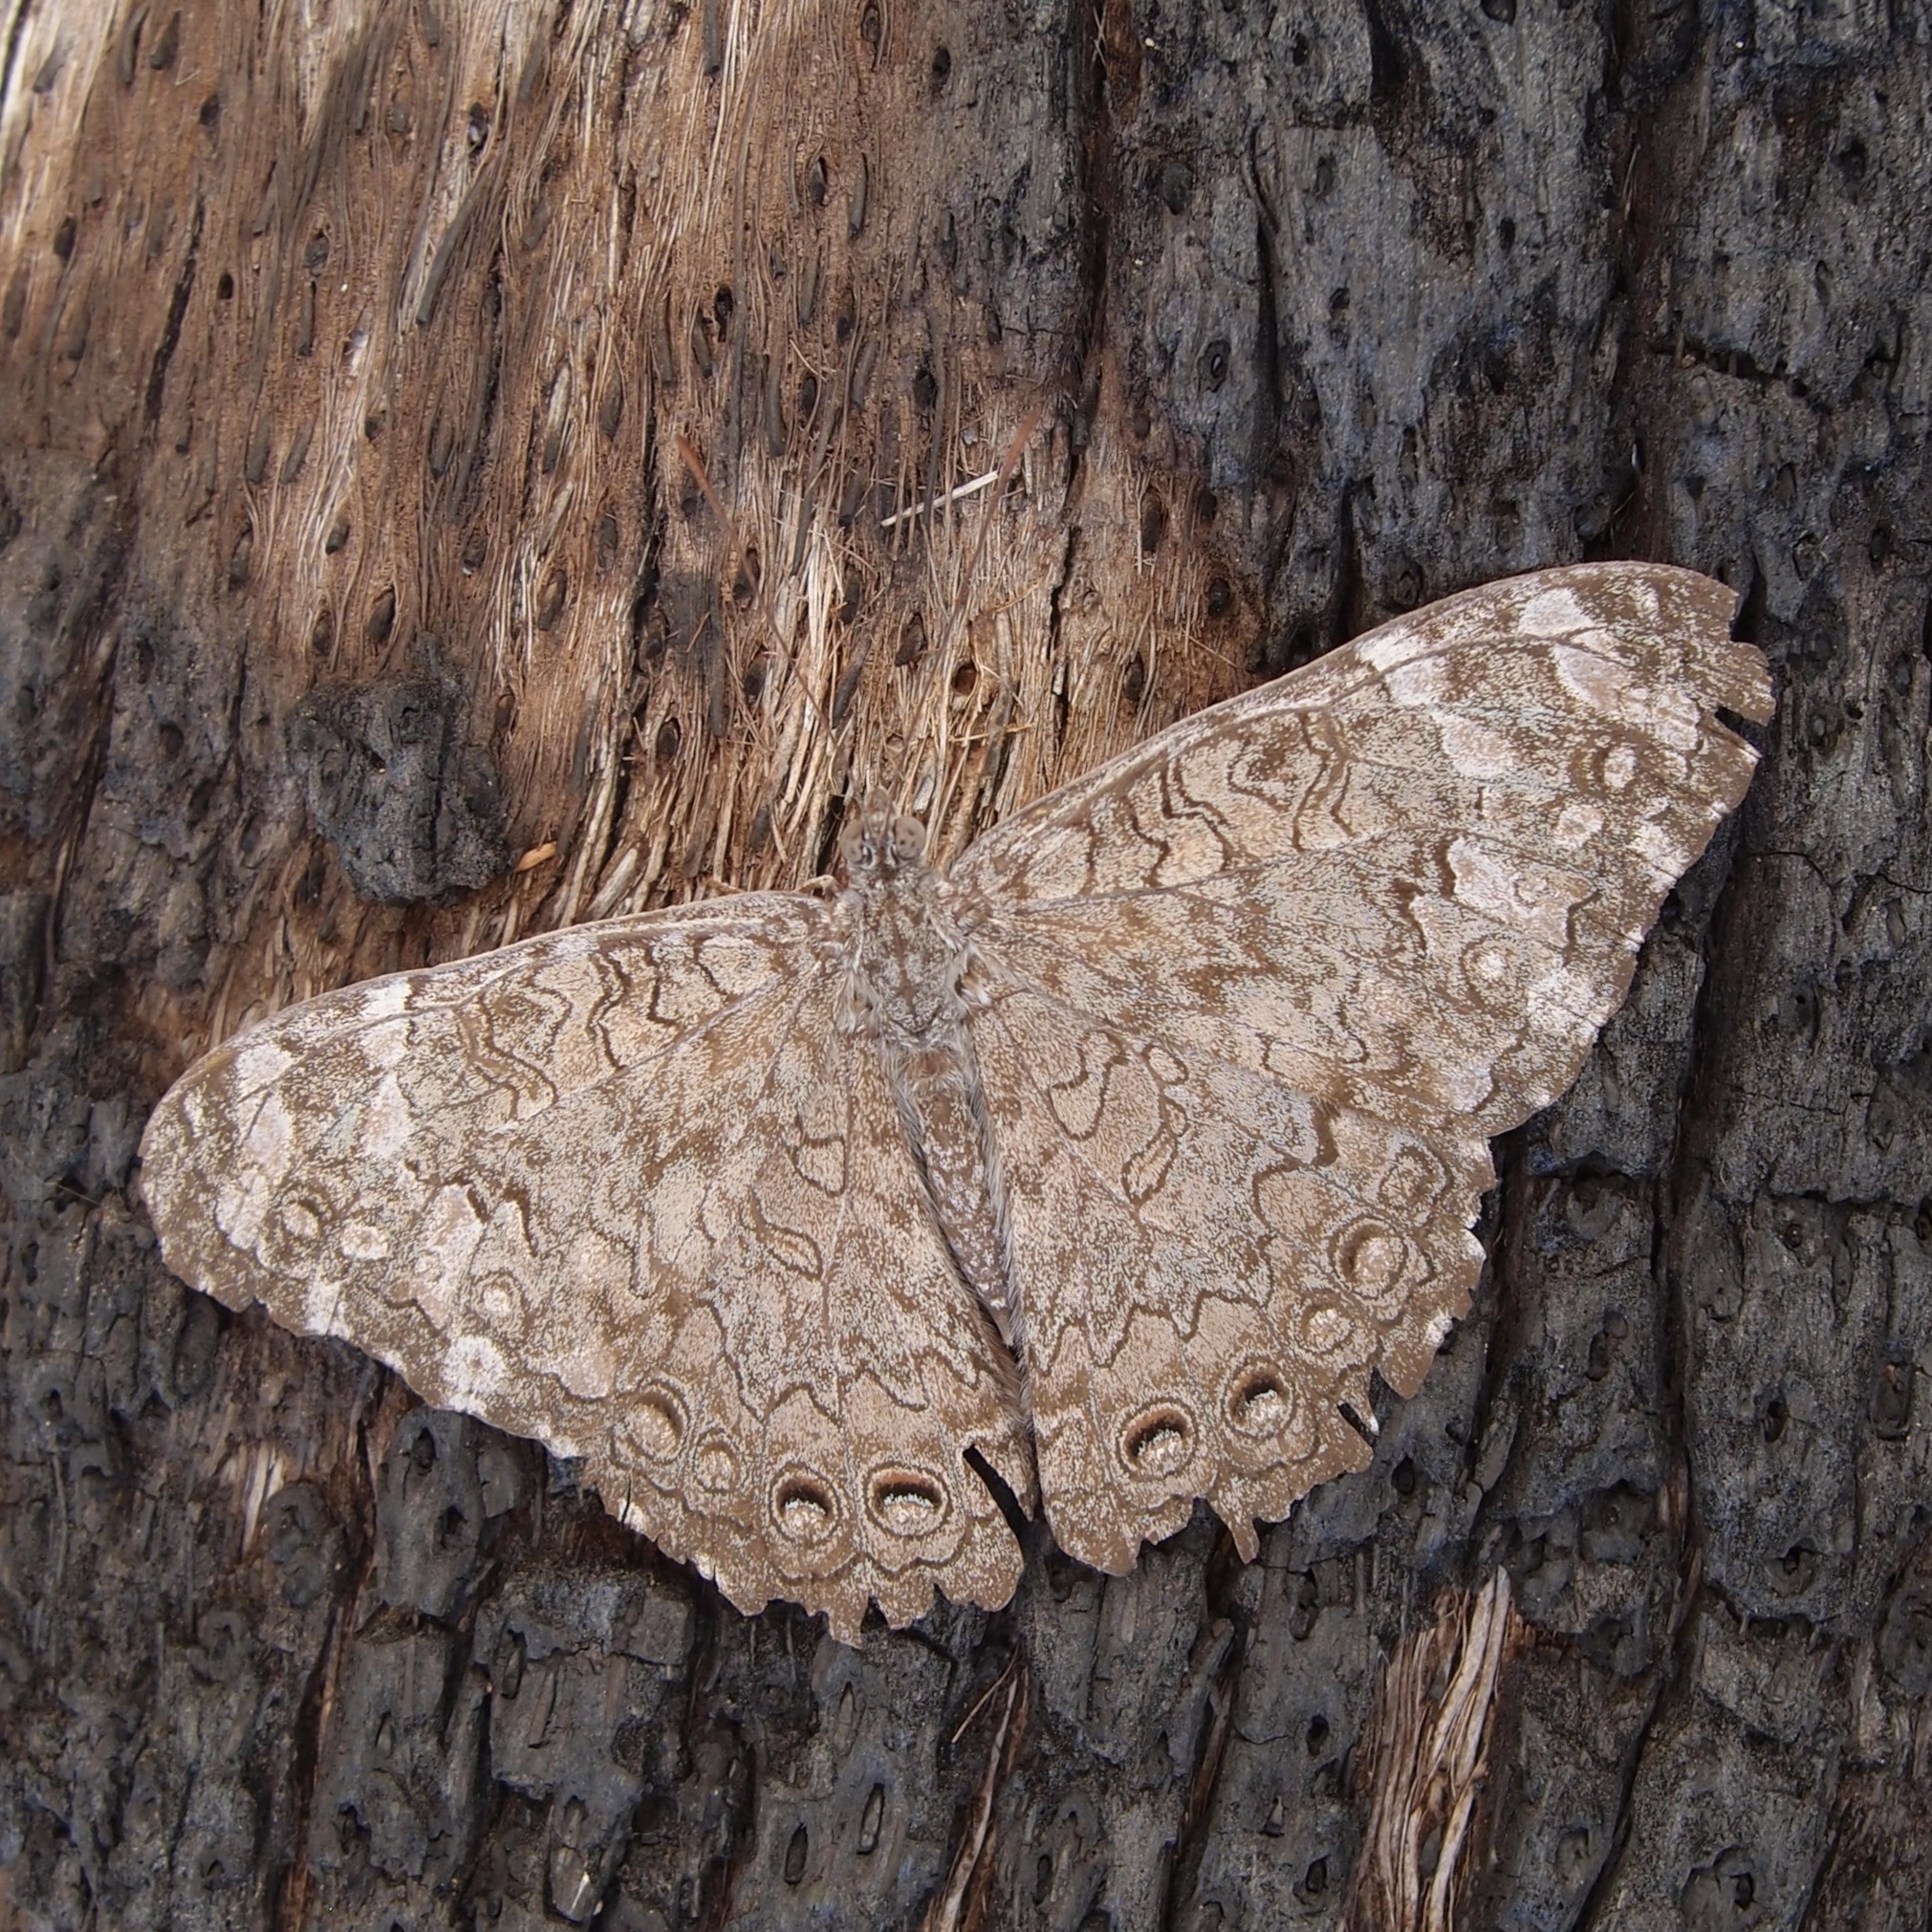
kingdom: Animalia
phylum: Arthropoda
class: Insecta
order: Lepidoptera
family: Nymphalidae
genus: Hamadryas
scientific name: Hamadryas februa
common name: Gray cracker
